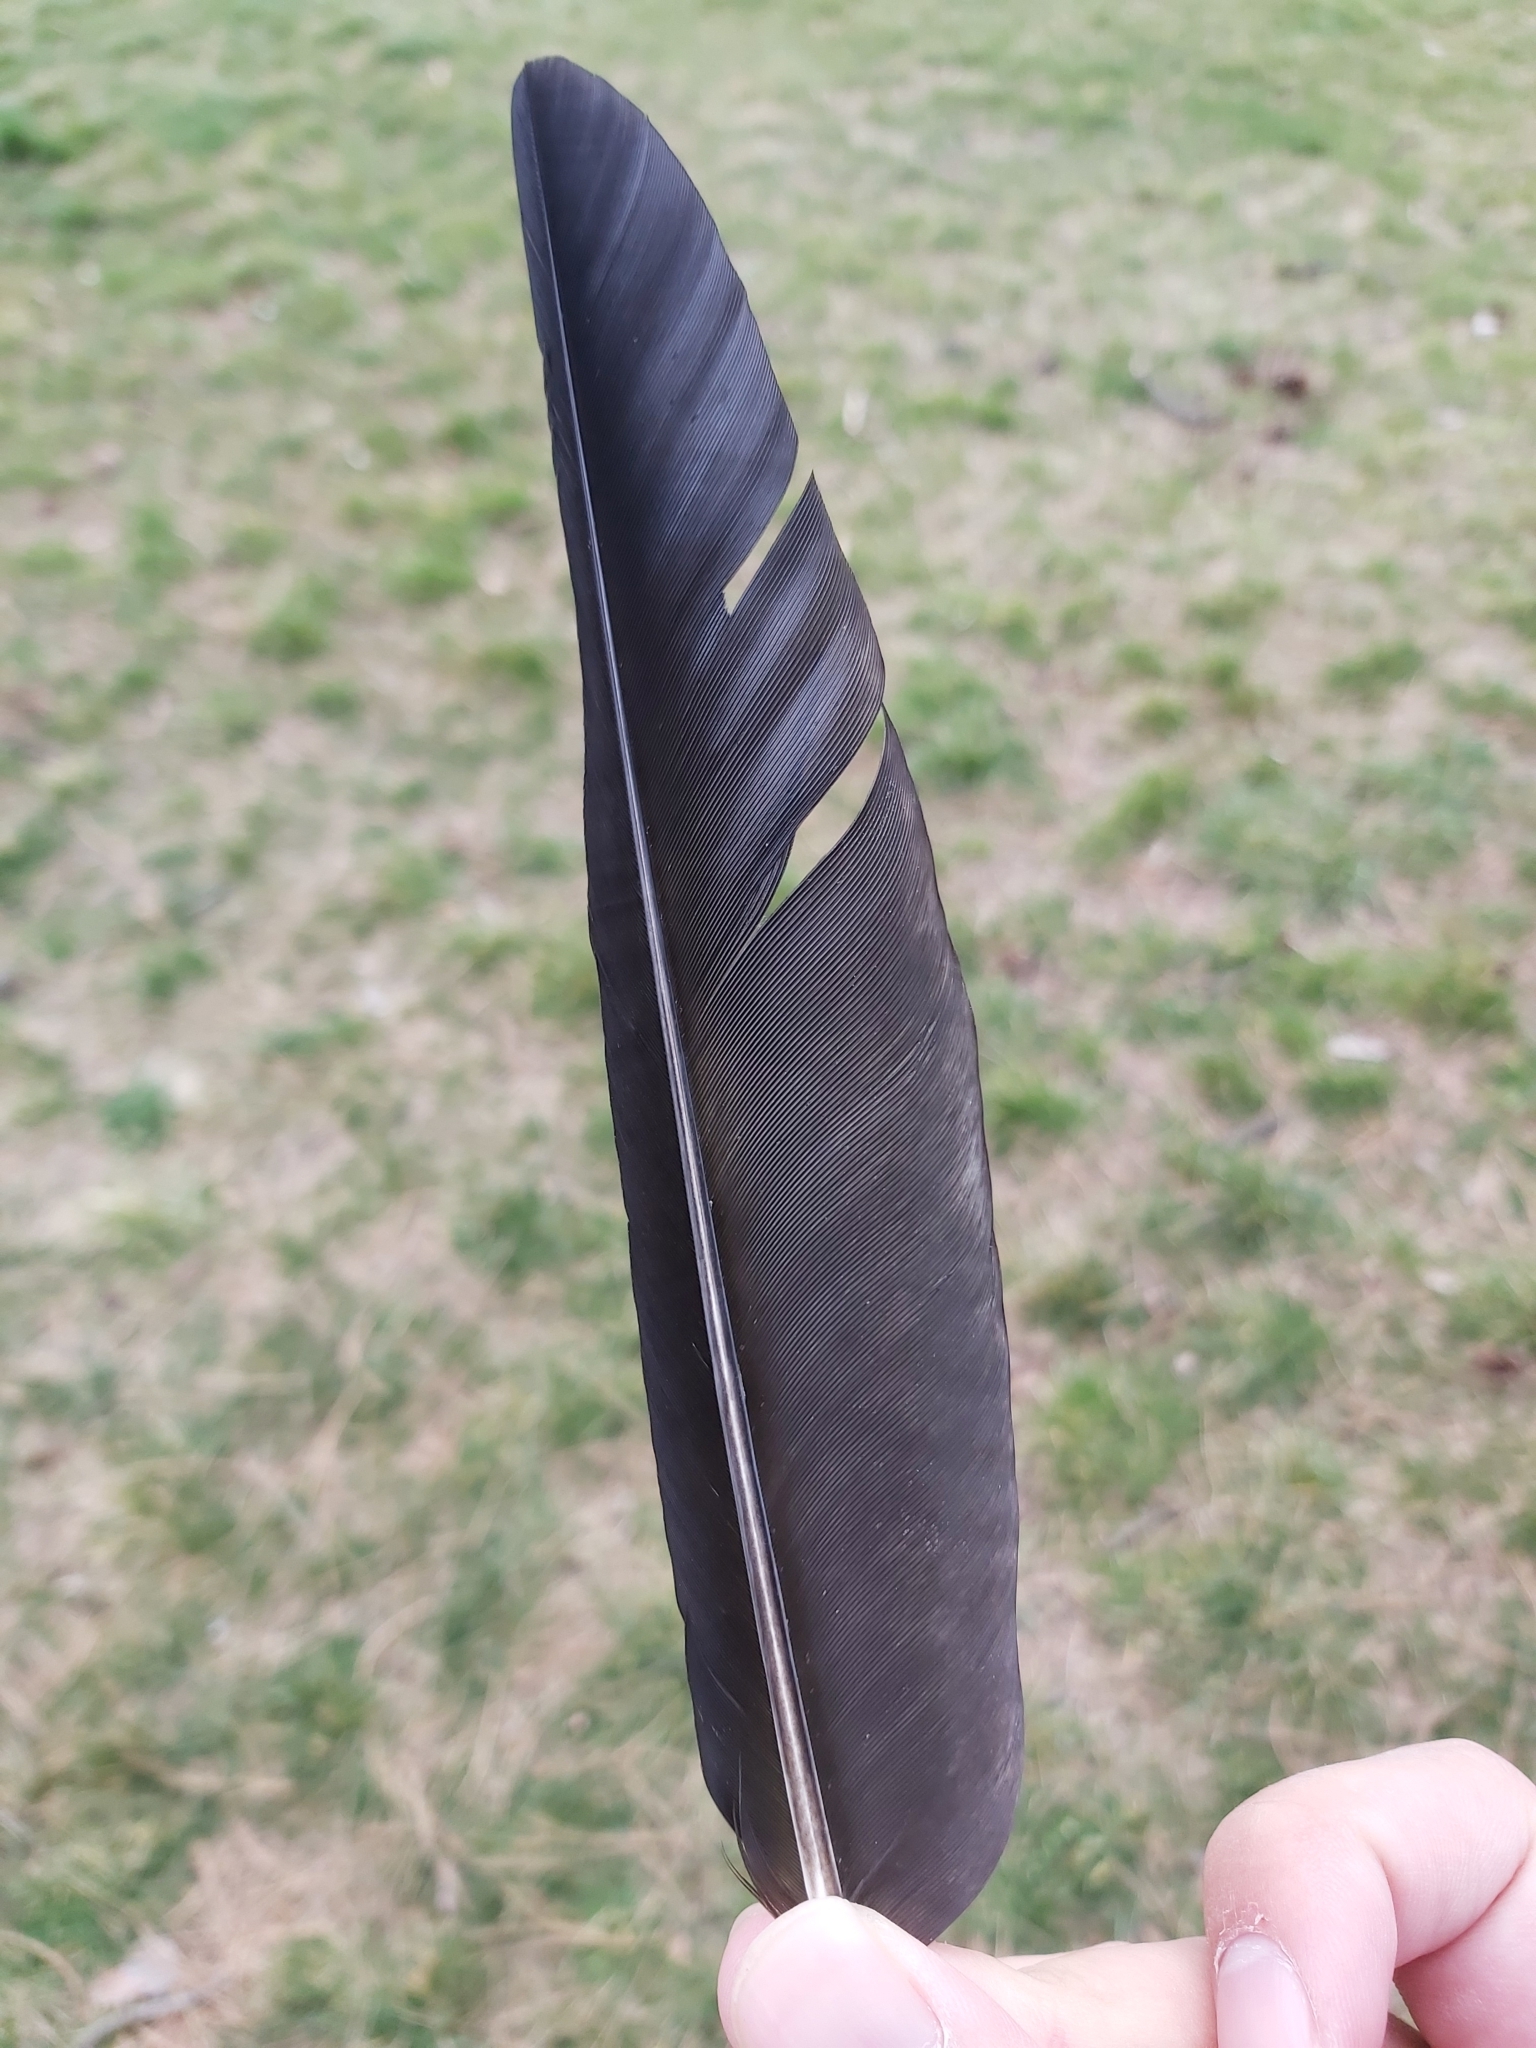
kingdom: Animalia
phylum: Chordata
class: Aves
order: Passeriformes
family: Corvidae
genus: Corvus
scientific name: Corvus cornix
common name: Hooded crow
